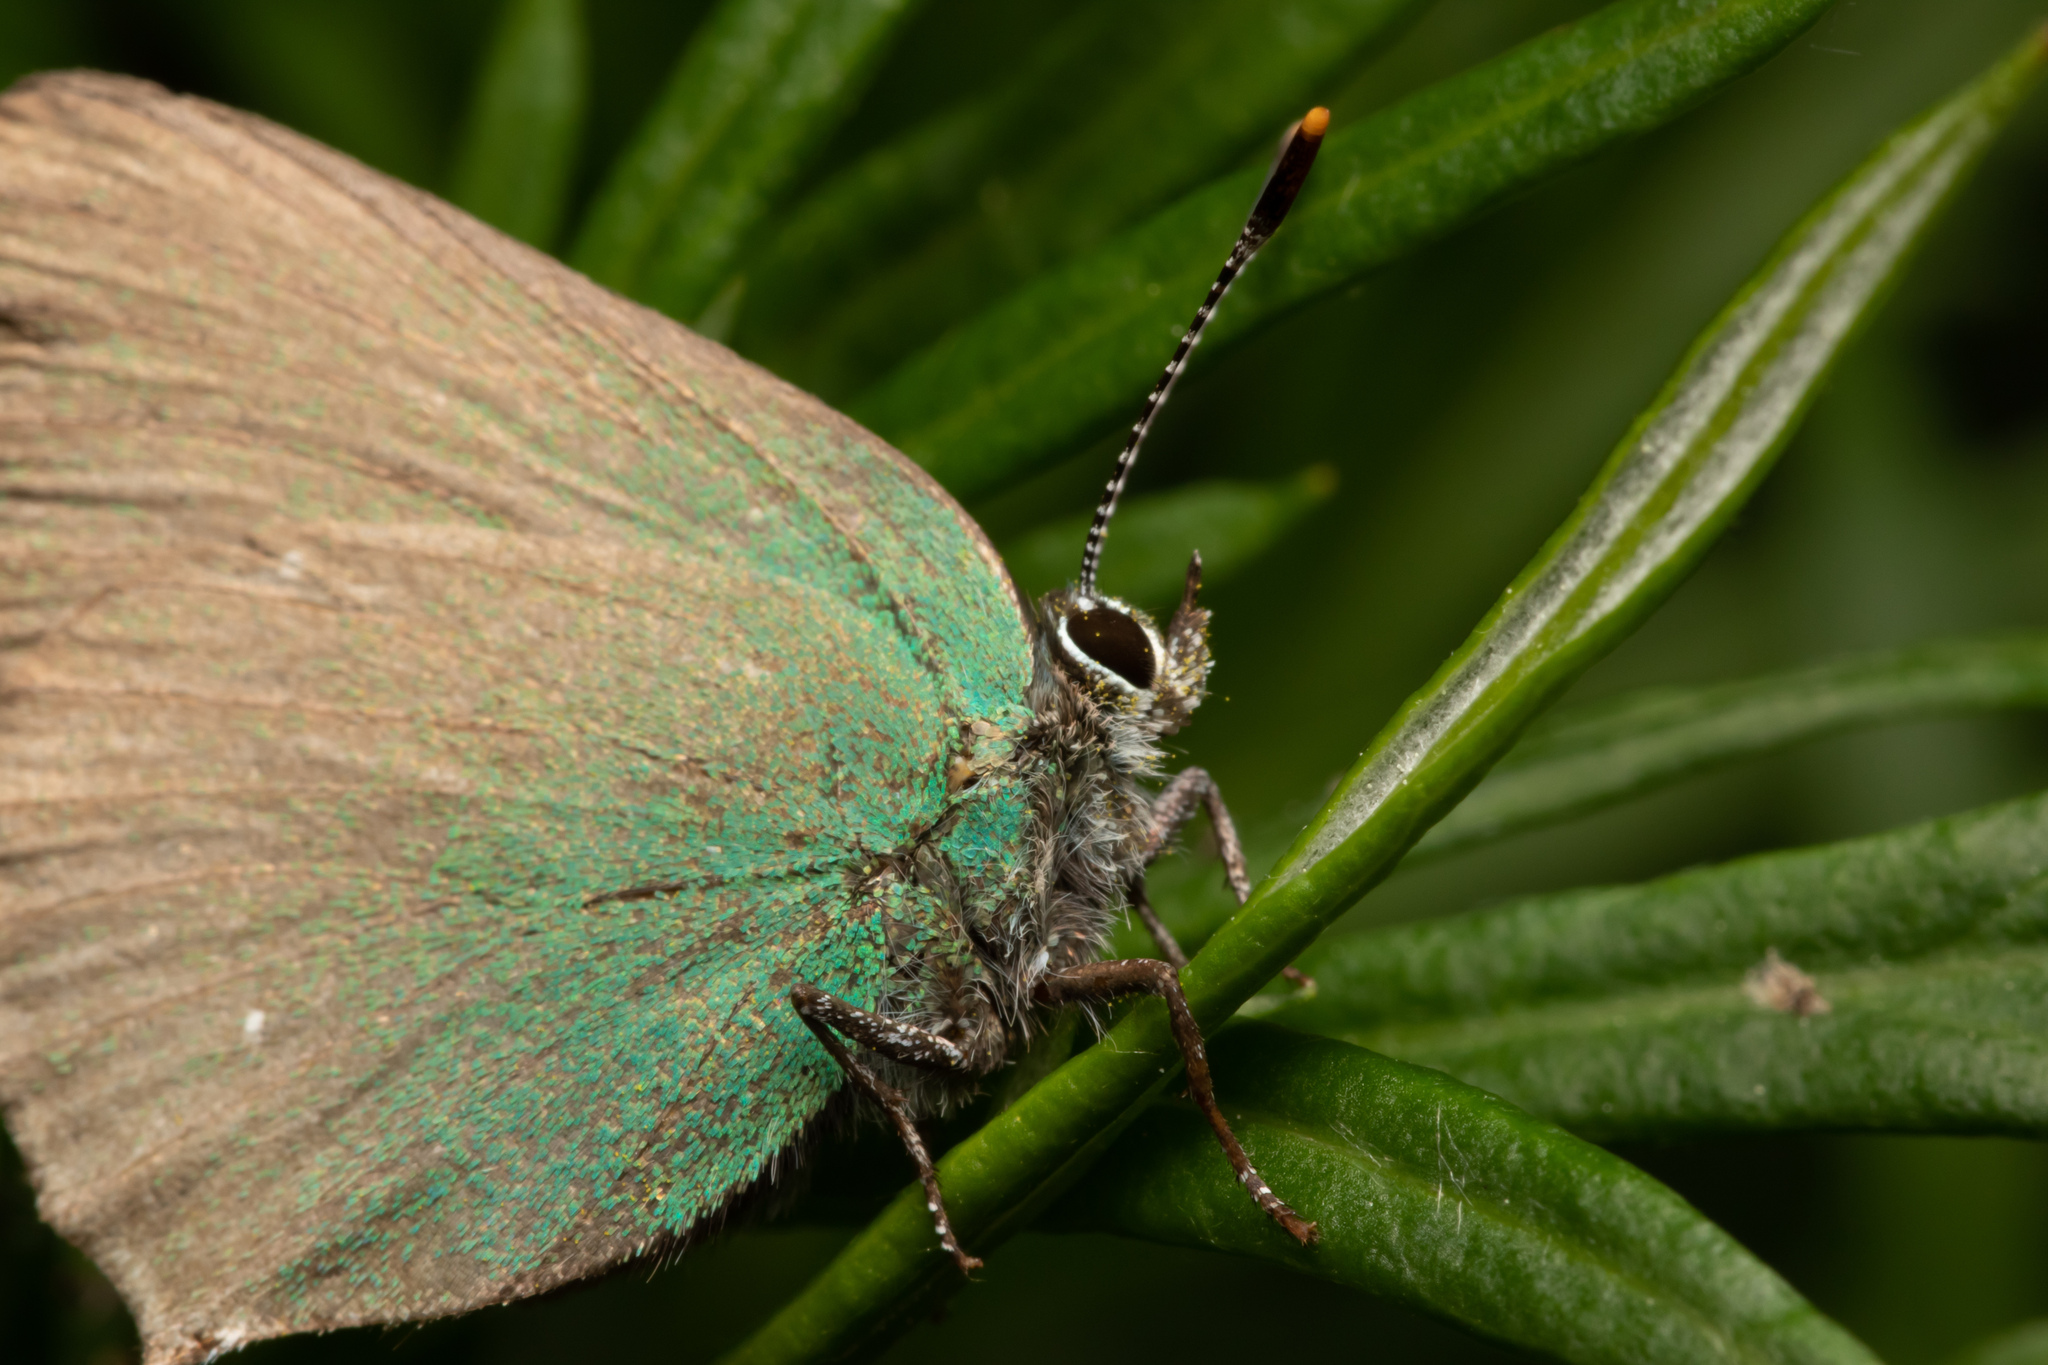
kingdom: Animalia
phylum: Arthropoda
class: Insecta
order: Lepidoptera
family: Lycaenidae
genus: Callophrys
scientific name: Callophrys rubi
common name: Green hairstreak
